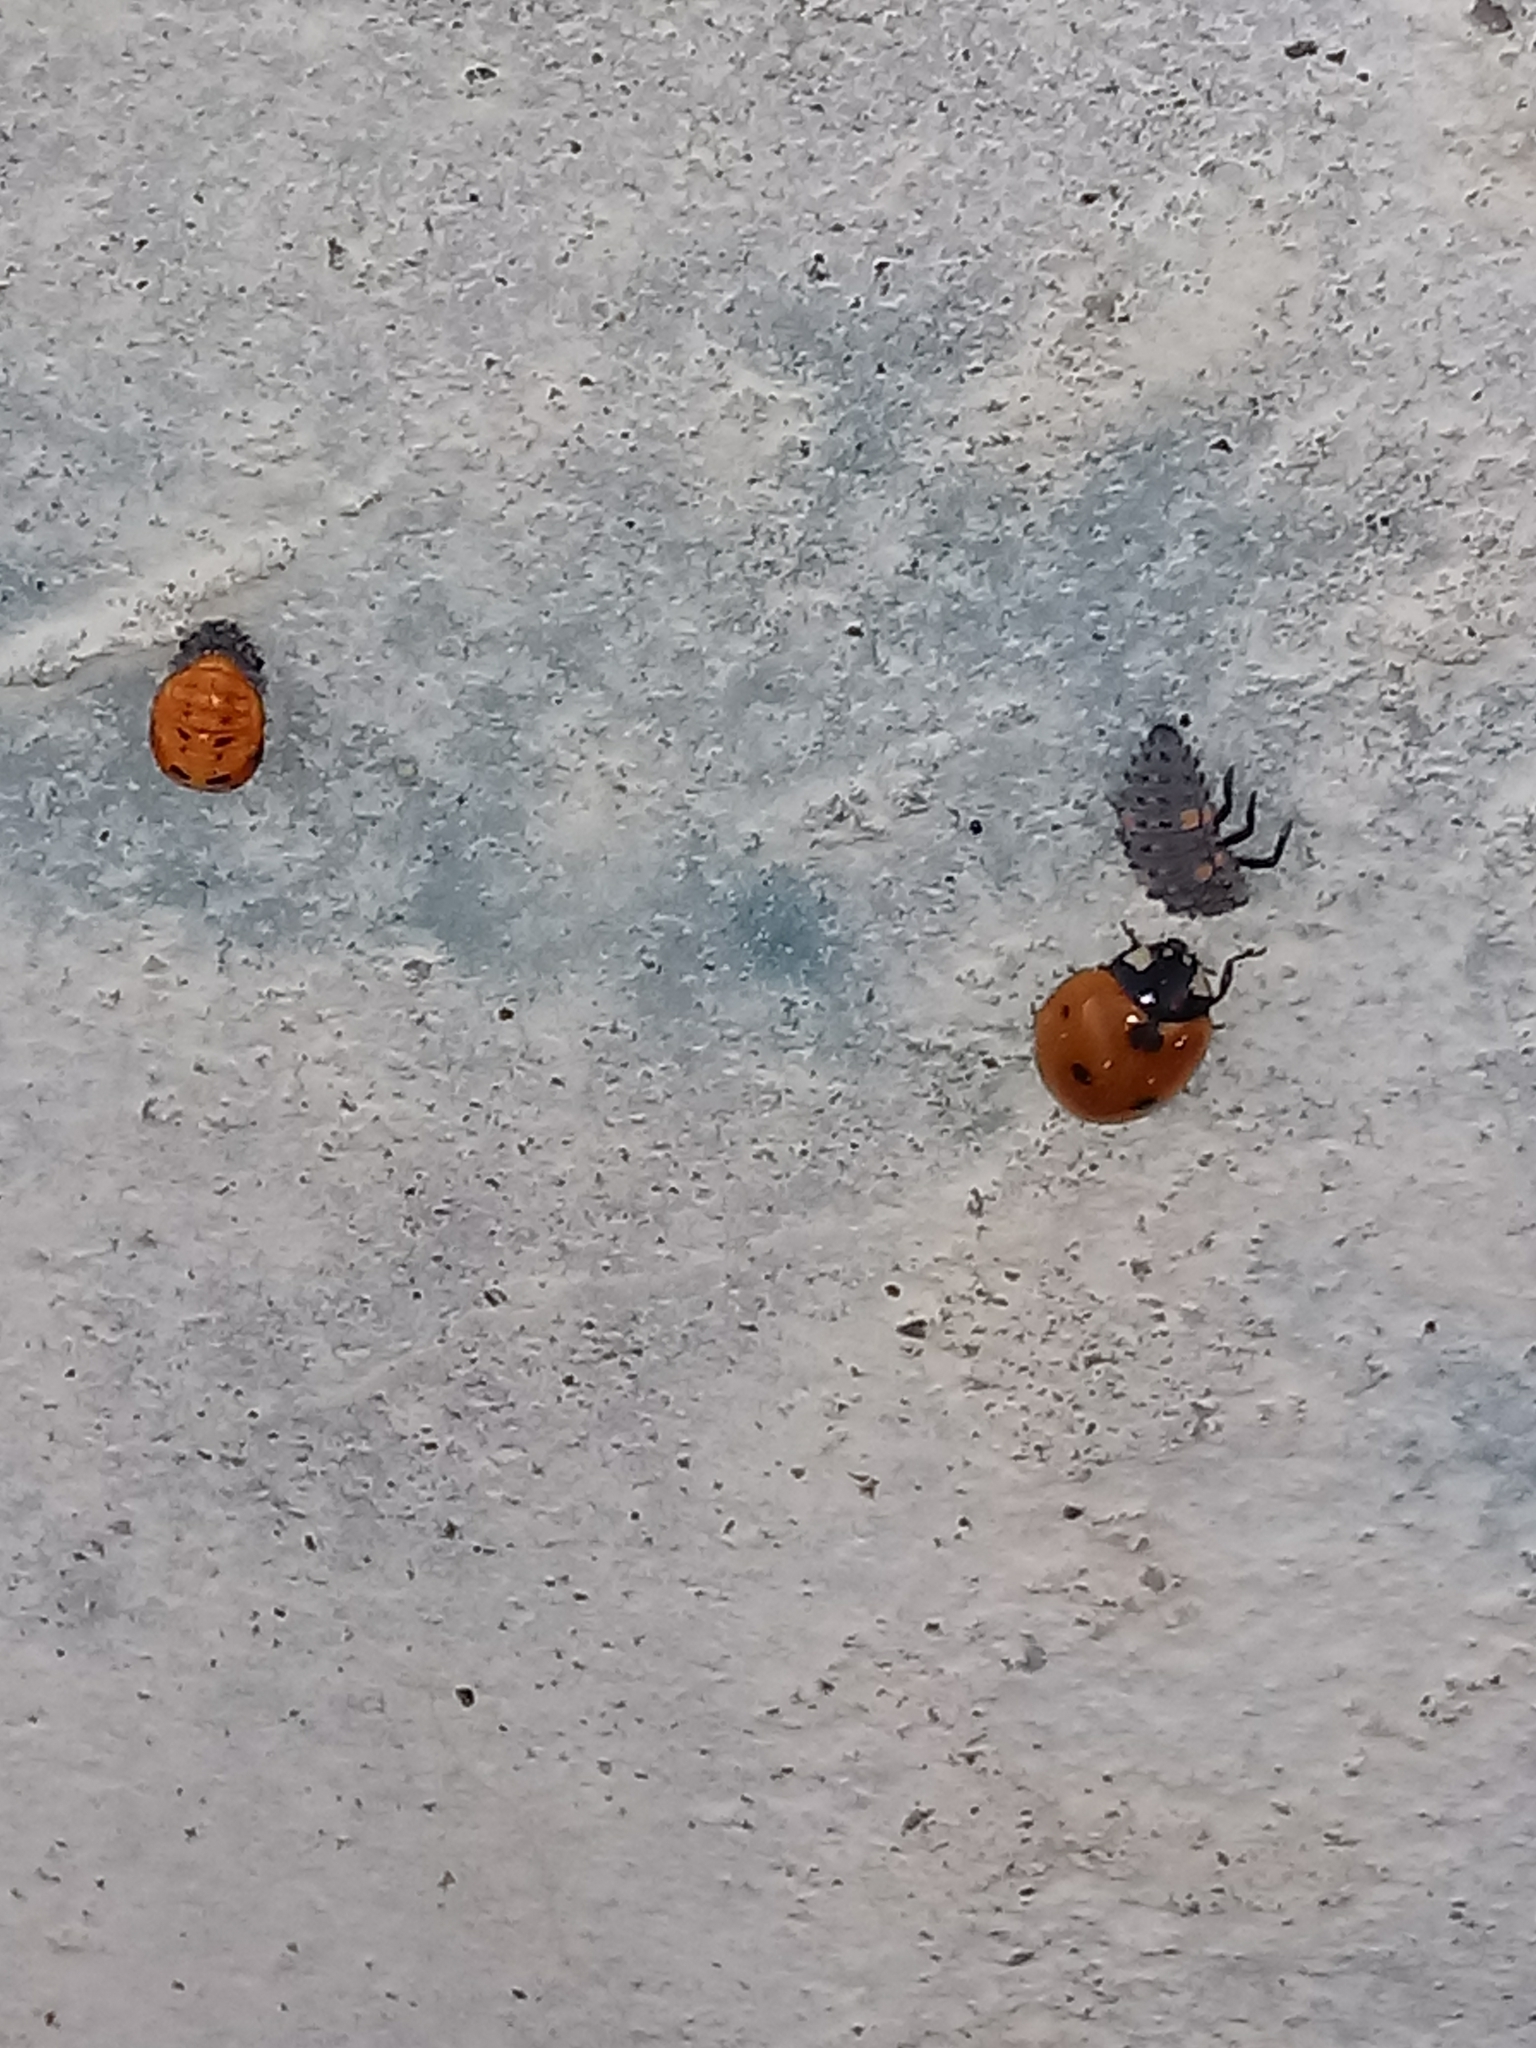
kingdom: Animalia
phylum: Arthropoda
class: Insecta
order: Coleoptera
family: Coccinellidae
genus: Coccinella
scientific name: Coccinella septempunctata
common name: Sevenspotted lady beetle
